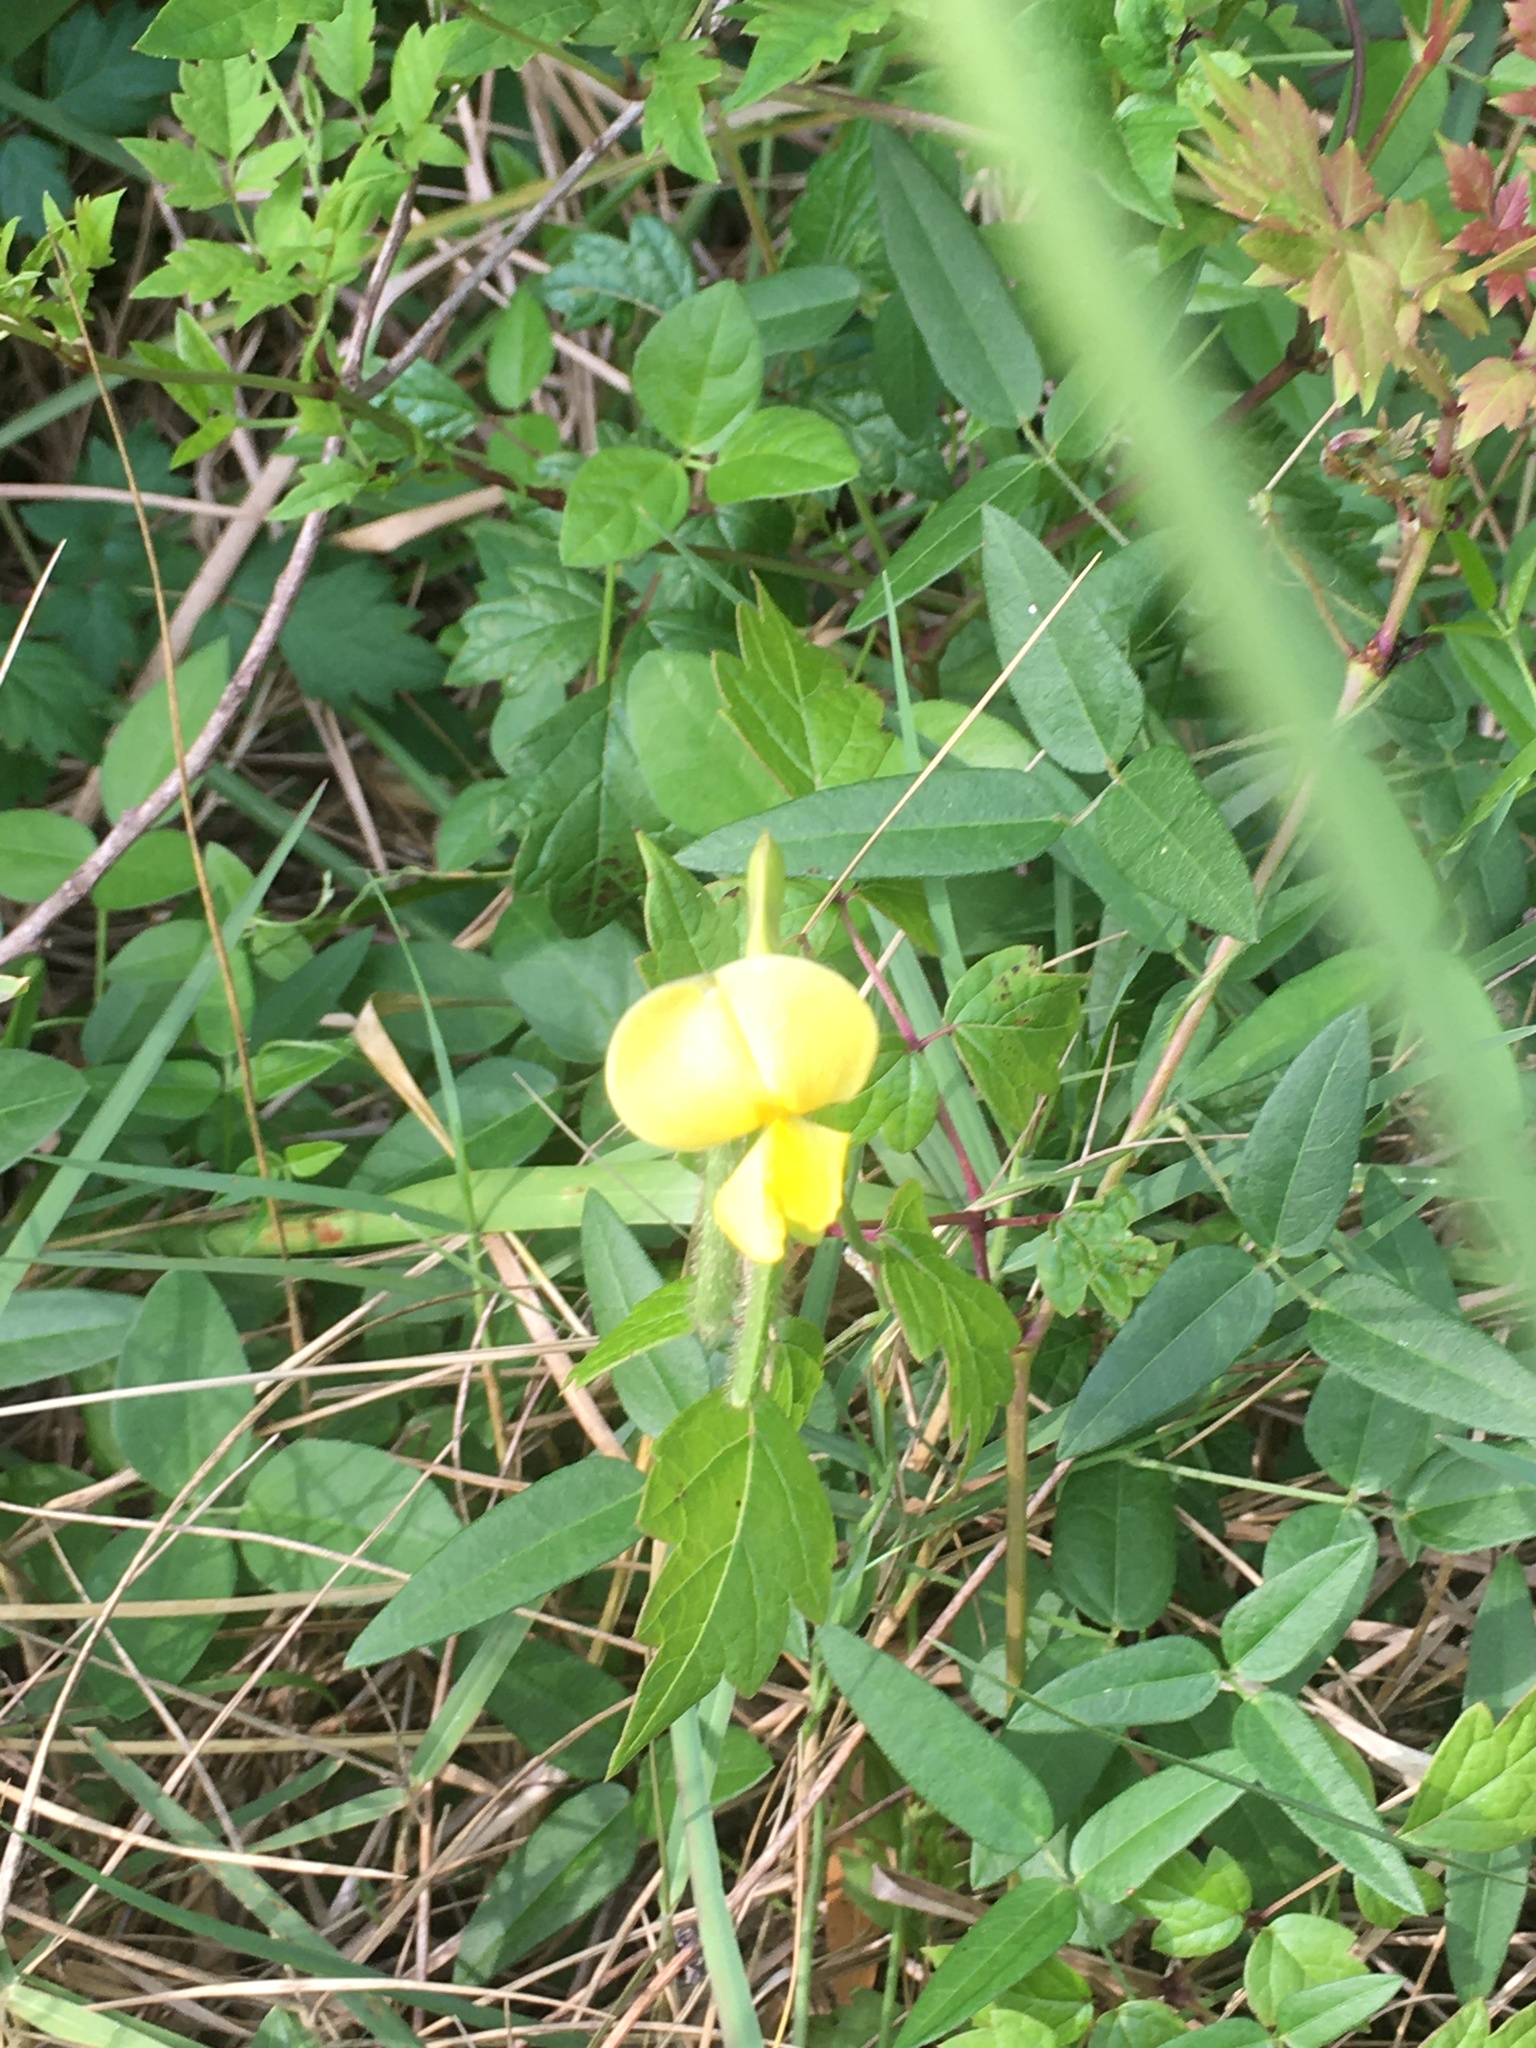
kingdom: Plantae
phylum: Tracheophyta
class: Magnoliopsida
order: Fabales
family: Fabaceae
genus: Vigna
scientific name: Vigna luteola
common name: Hairypod cowpea
